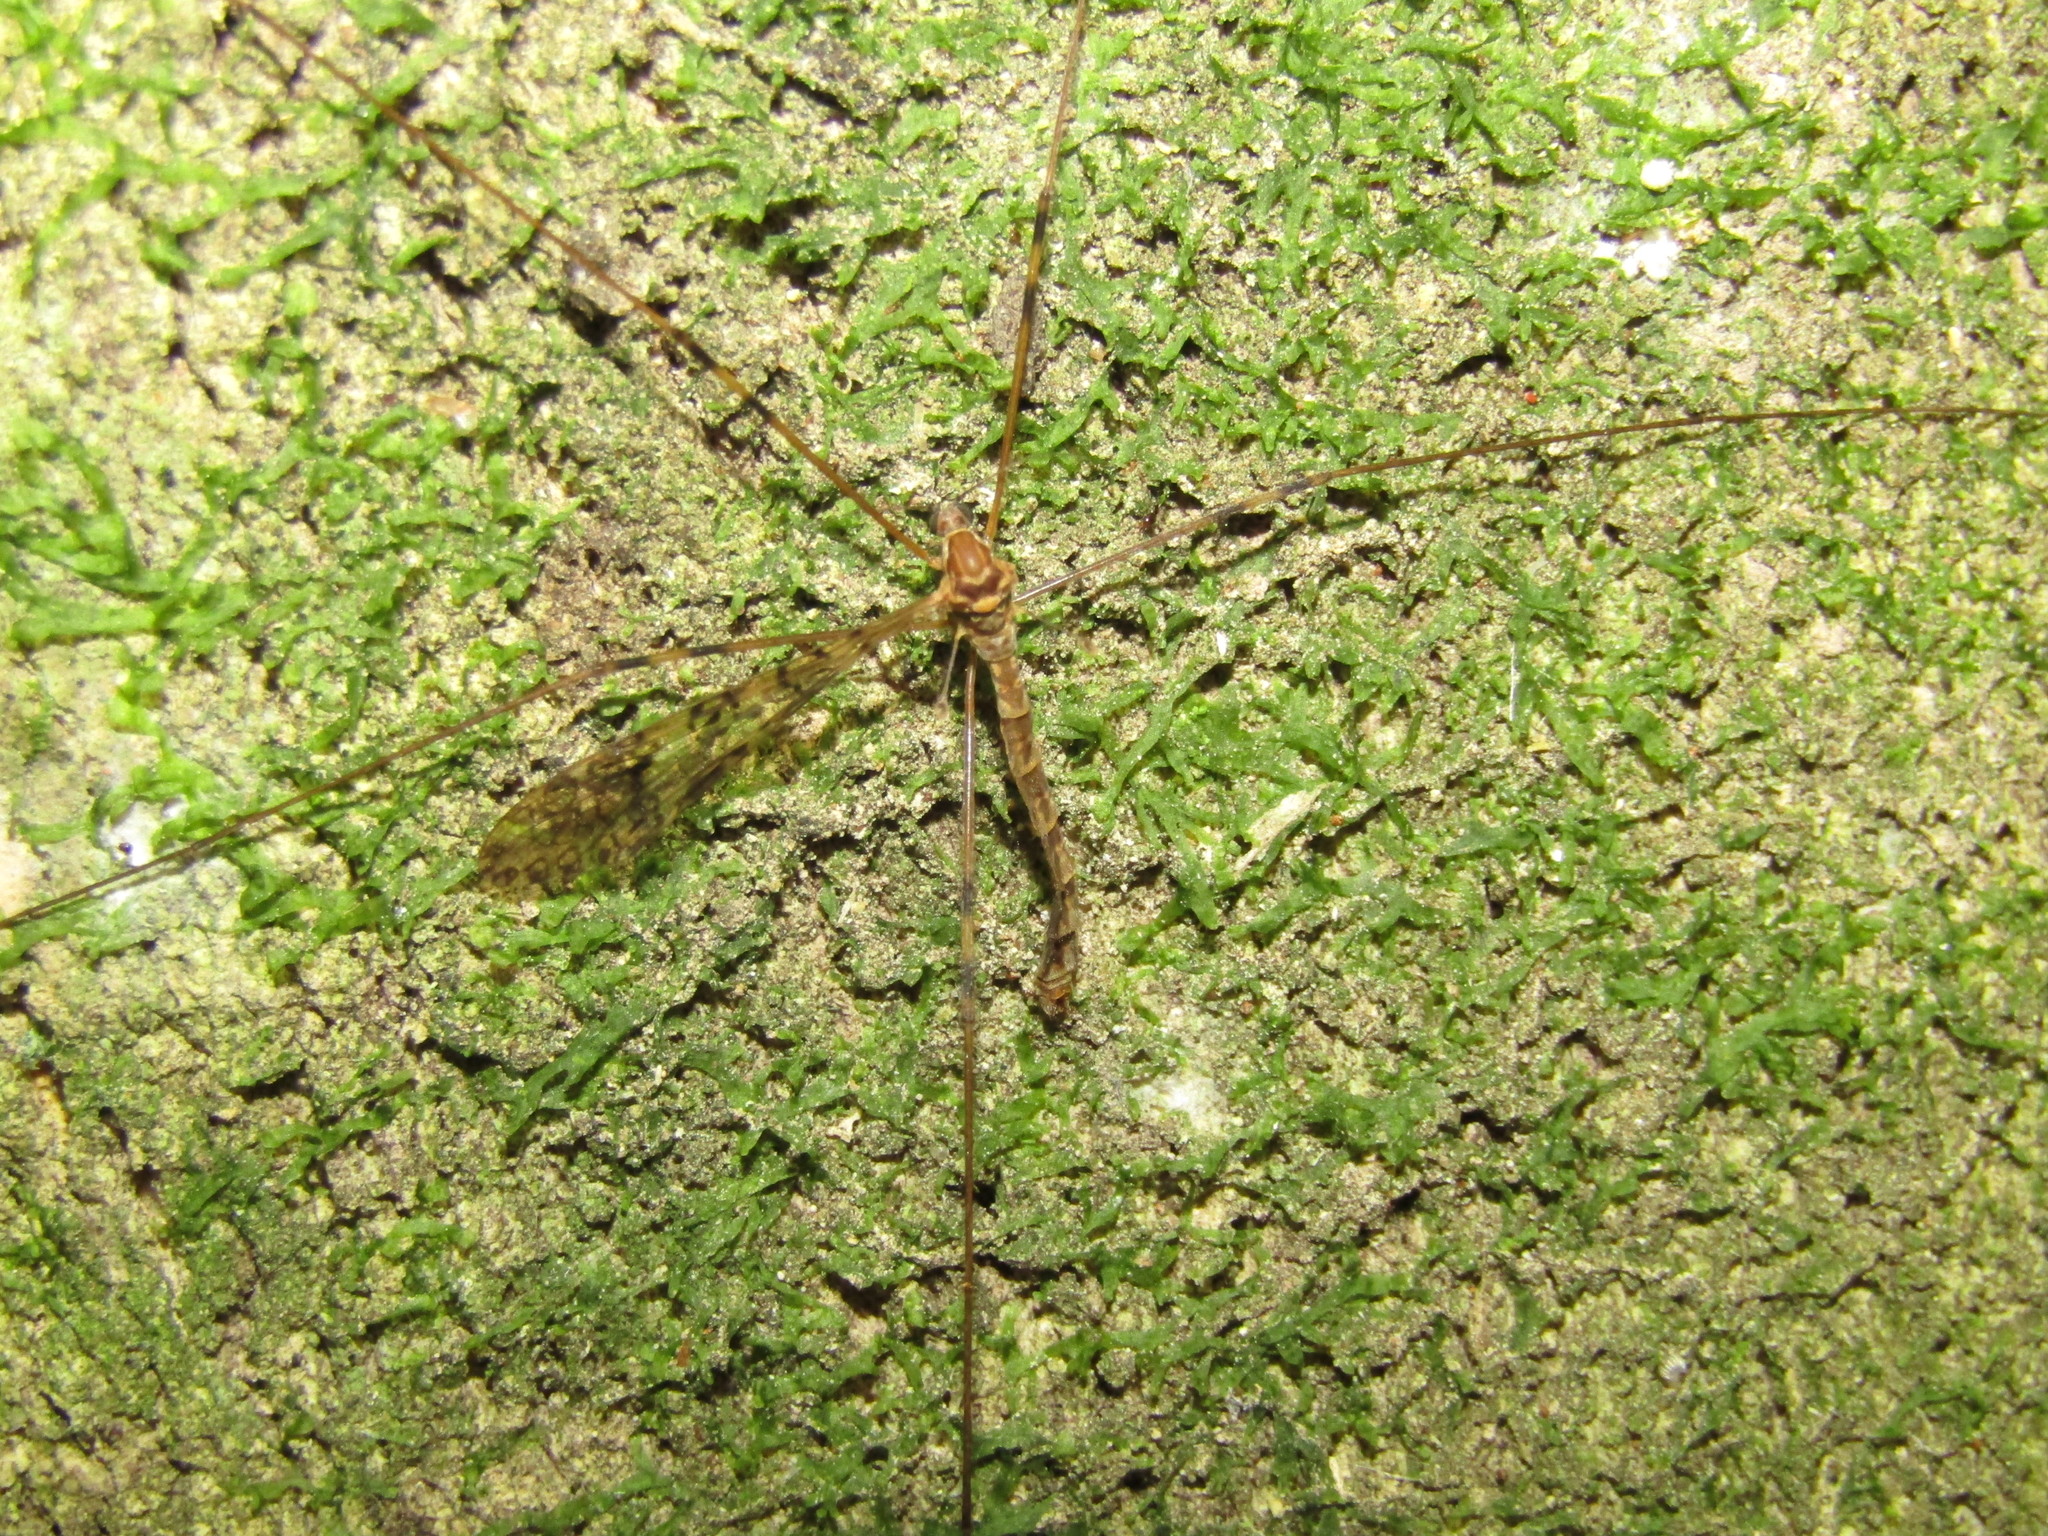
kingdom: Animalia
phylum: Arthropoda
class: Insecta
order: Diptera
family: Limoniidae
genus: Austrolimnophila
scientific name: Austrolimnophila argus
